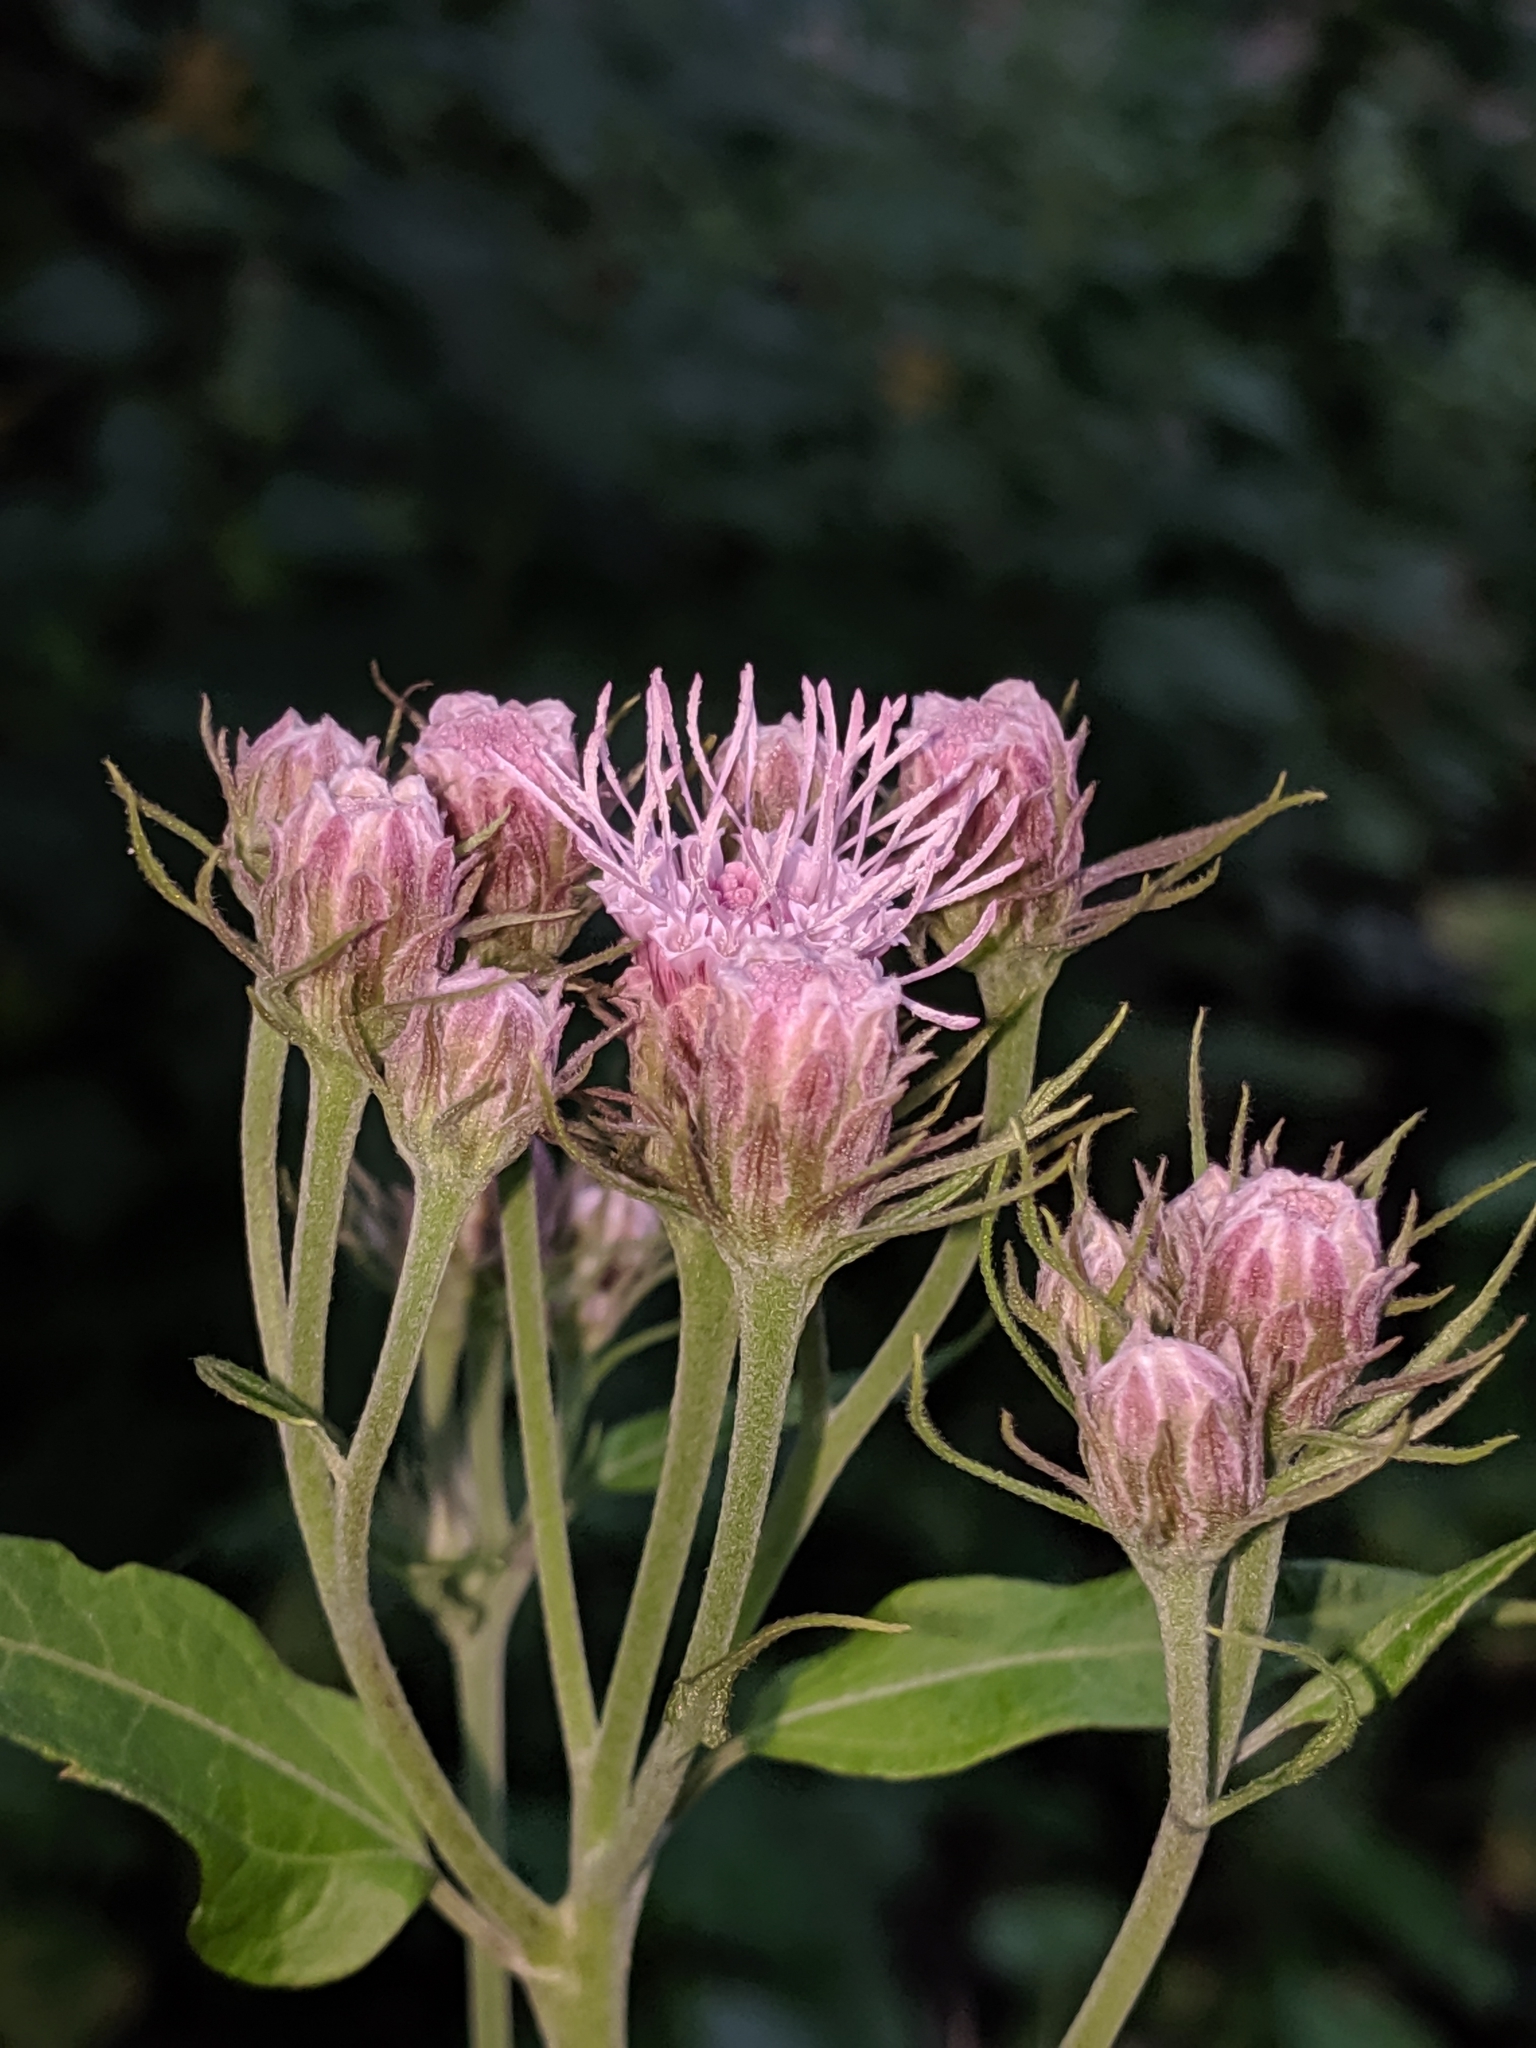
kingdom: Plantae
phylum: Tracheophyta
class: Magnoliopsida
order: Asterales
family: Asteraceae
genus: Brickellia
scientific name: Brickellia cordifolia
